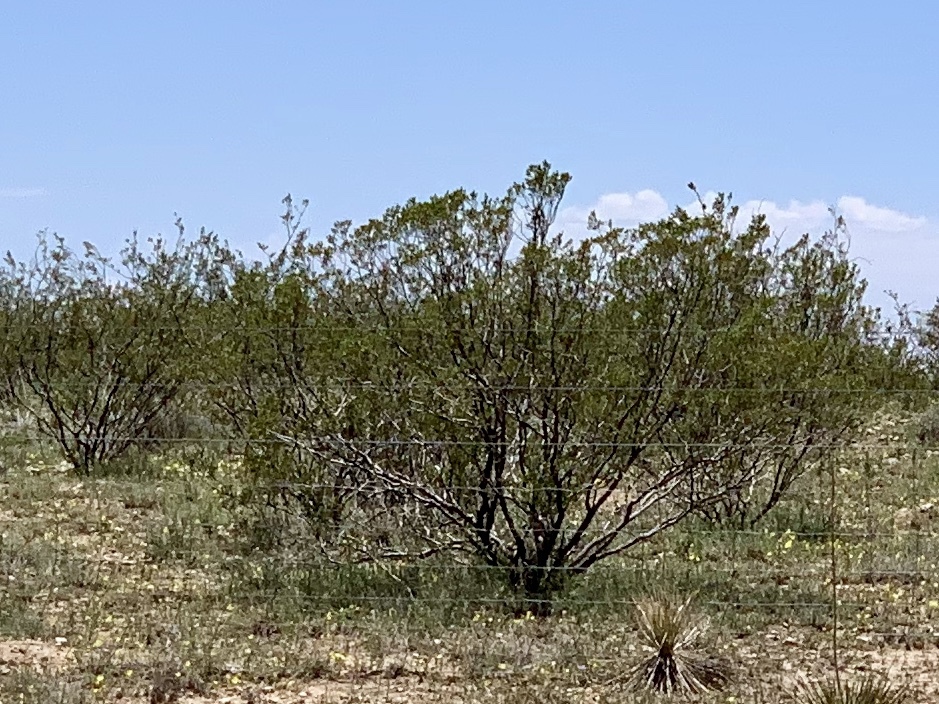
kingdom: Plantae
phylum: Tracheophyta
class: Liliopsida
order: Asparagales
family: Asparagaceae
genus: Yucca
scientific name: Yucca elata
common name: Palmella
